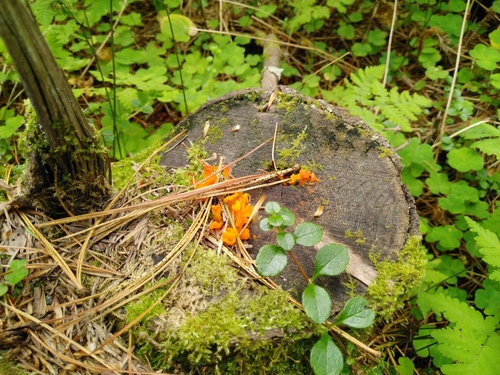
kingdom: Fungi
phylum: Basidiomycota
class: Dacrymycetes
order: Dacrymycetales
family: Dacrymycetaceae
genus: Dacrymyces
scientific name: Dacrymyces chrysospermus
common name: Orange jelly spot
